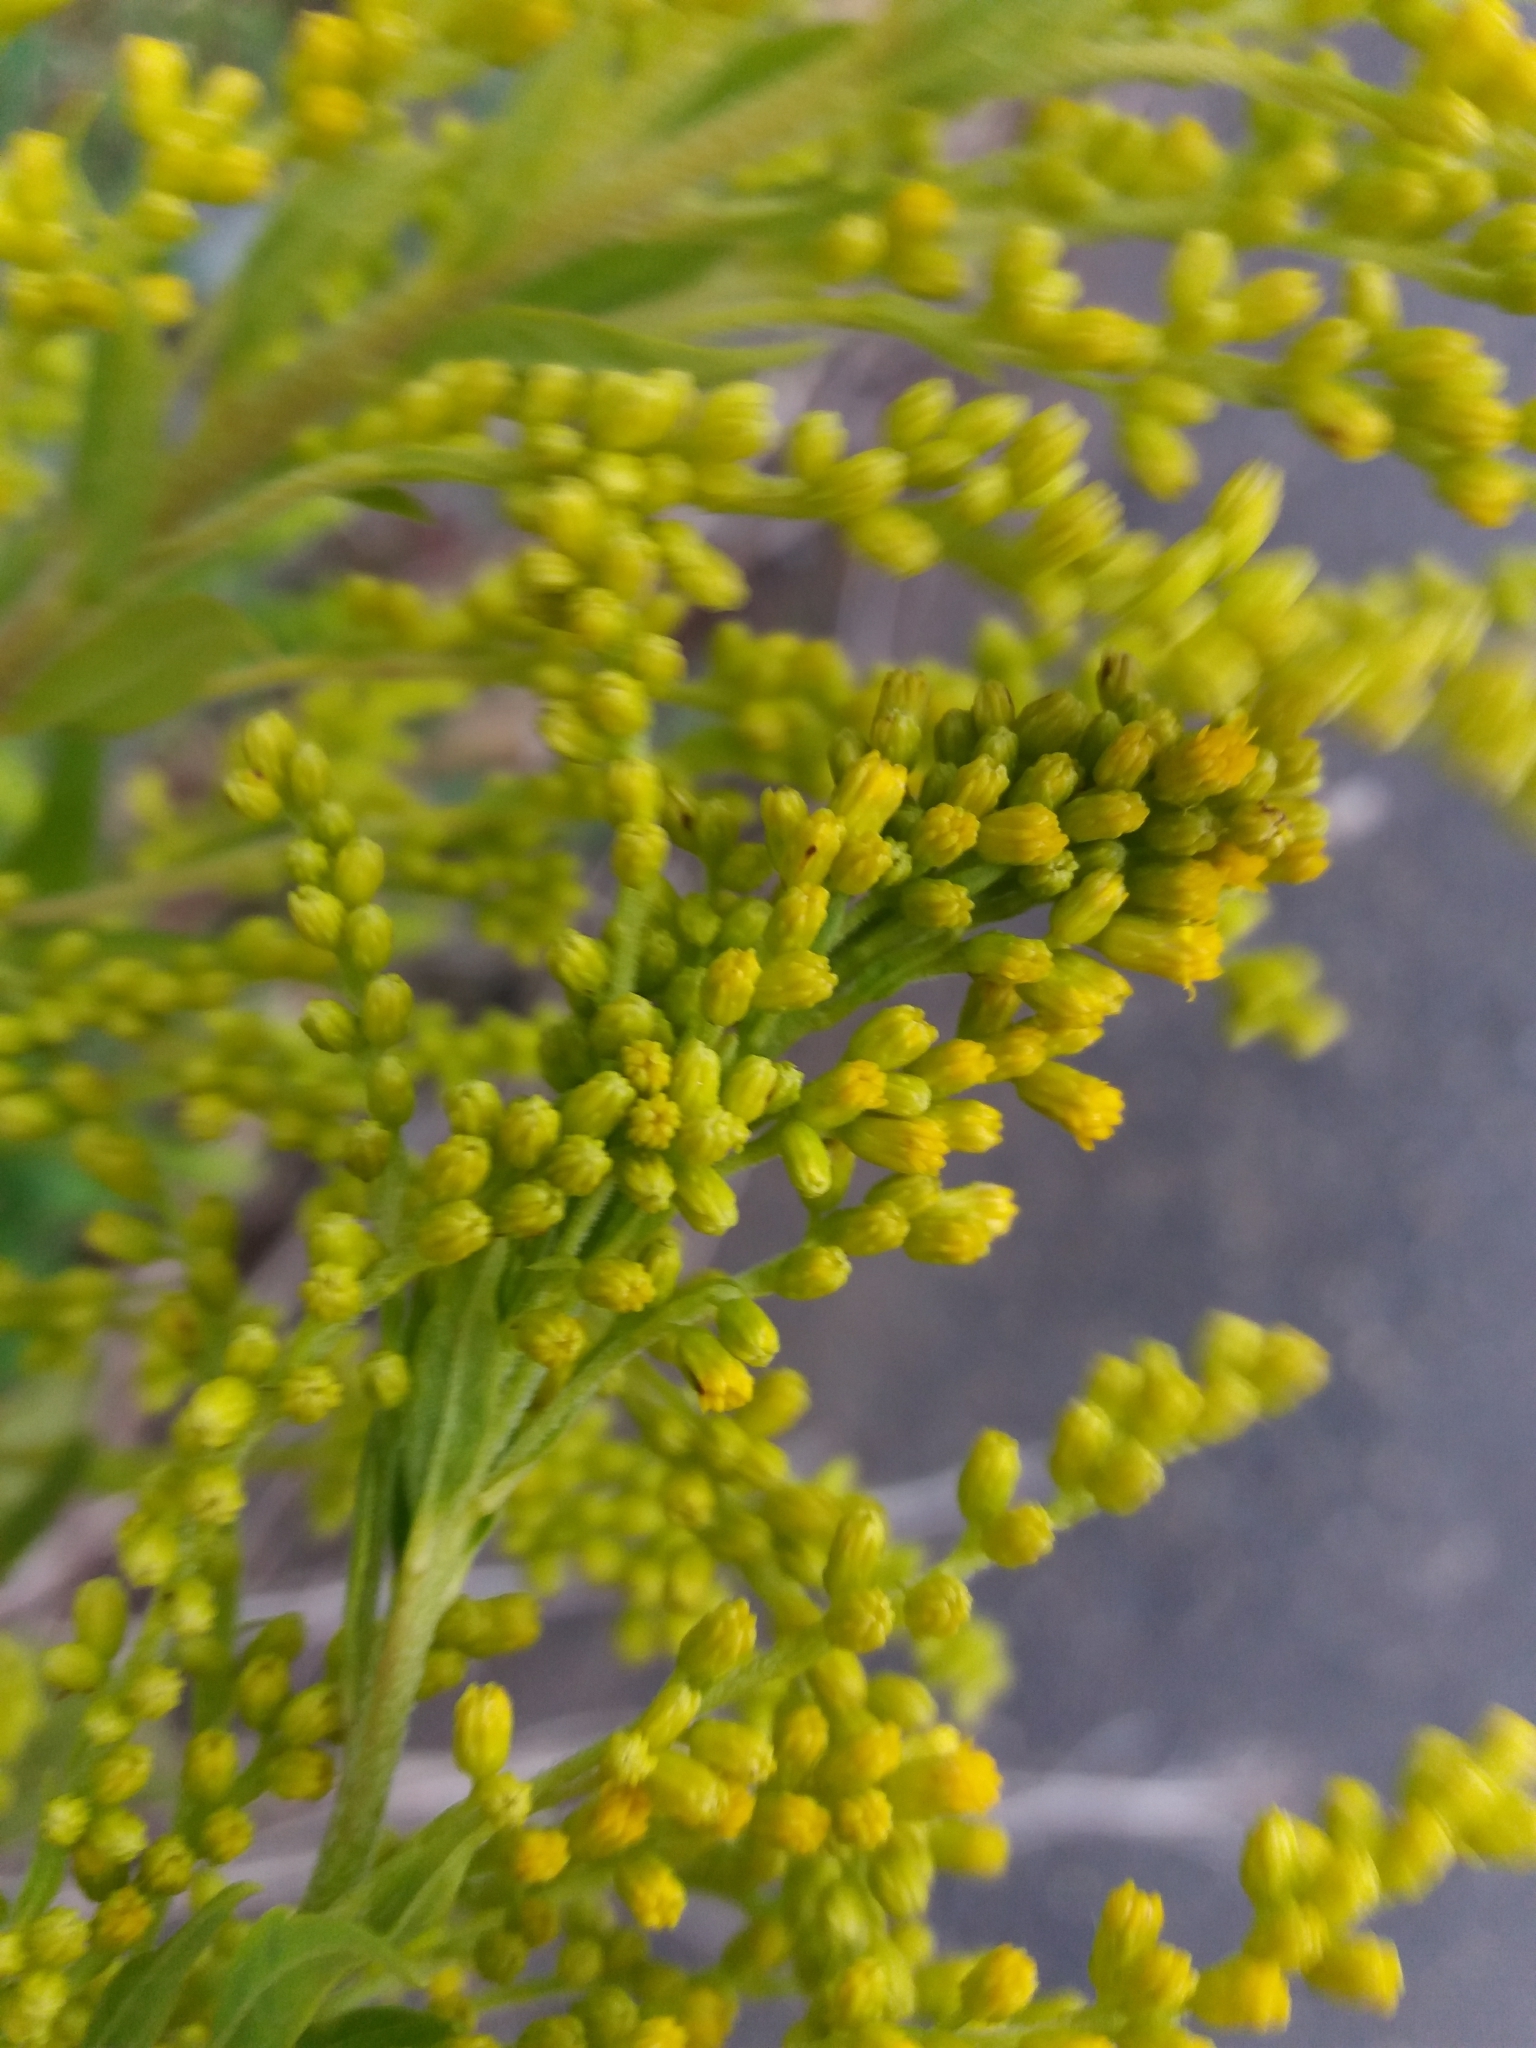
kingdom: Plantae
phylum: Tracheophyta
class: Magnoliopsida
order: Asterales
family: Asteraceae
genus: Solidago
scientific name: Solidago canadensis
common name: Canada goldenrod
